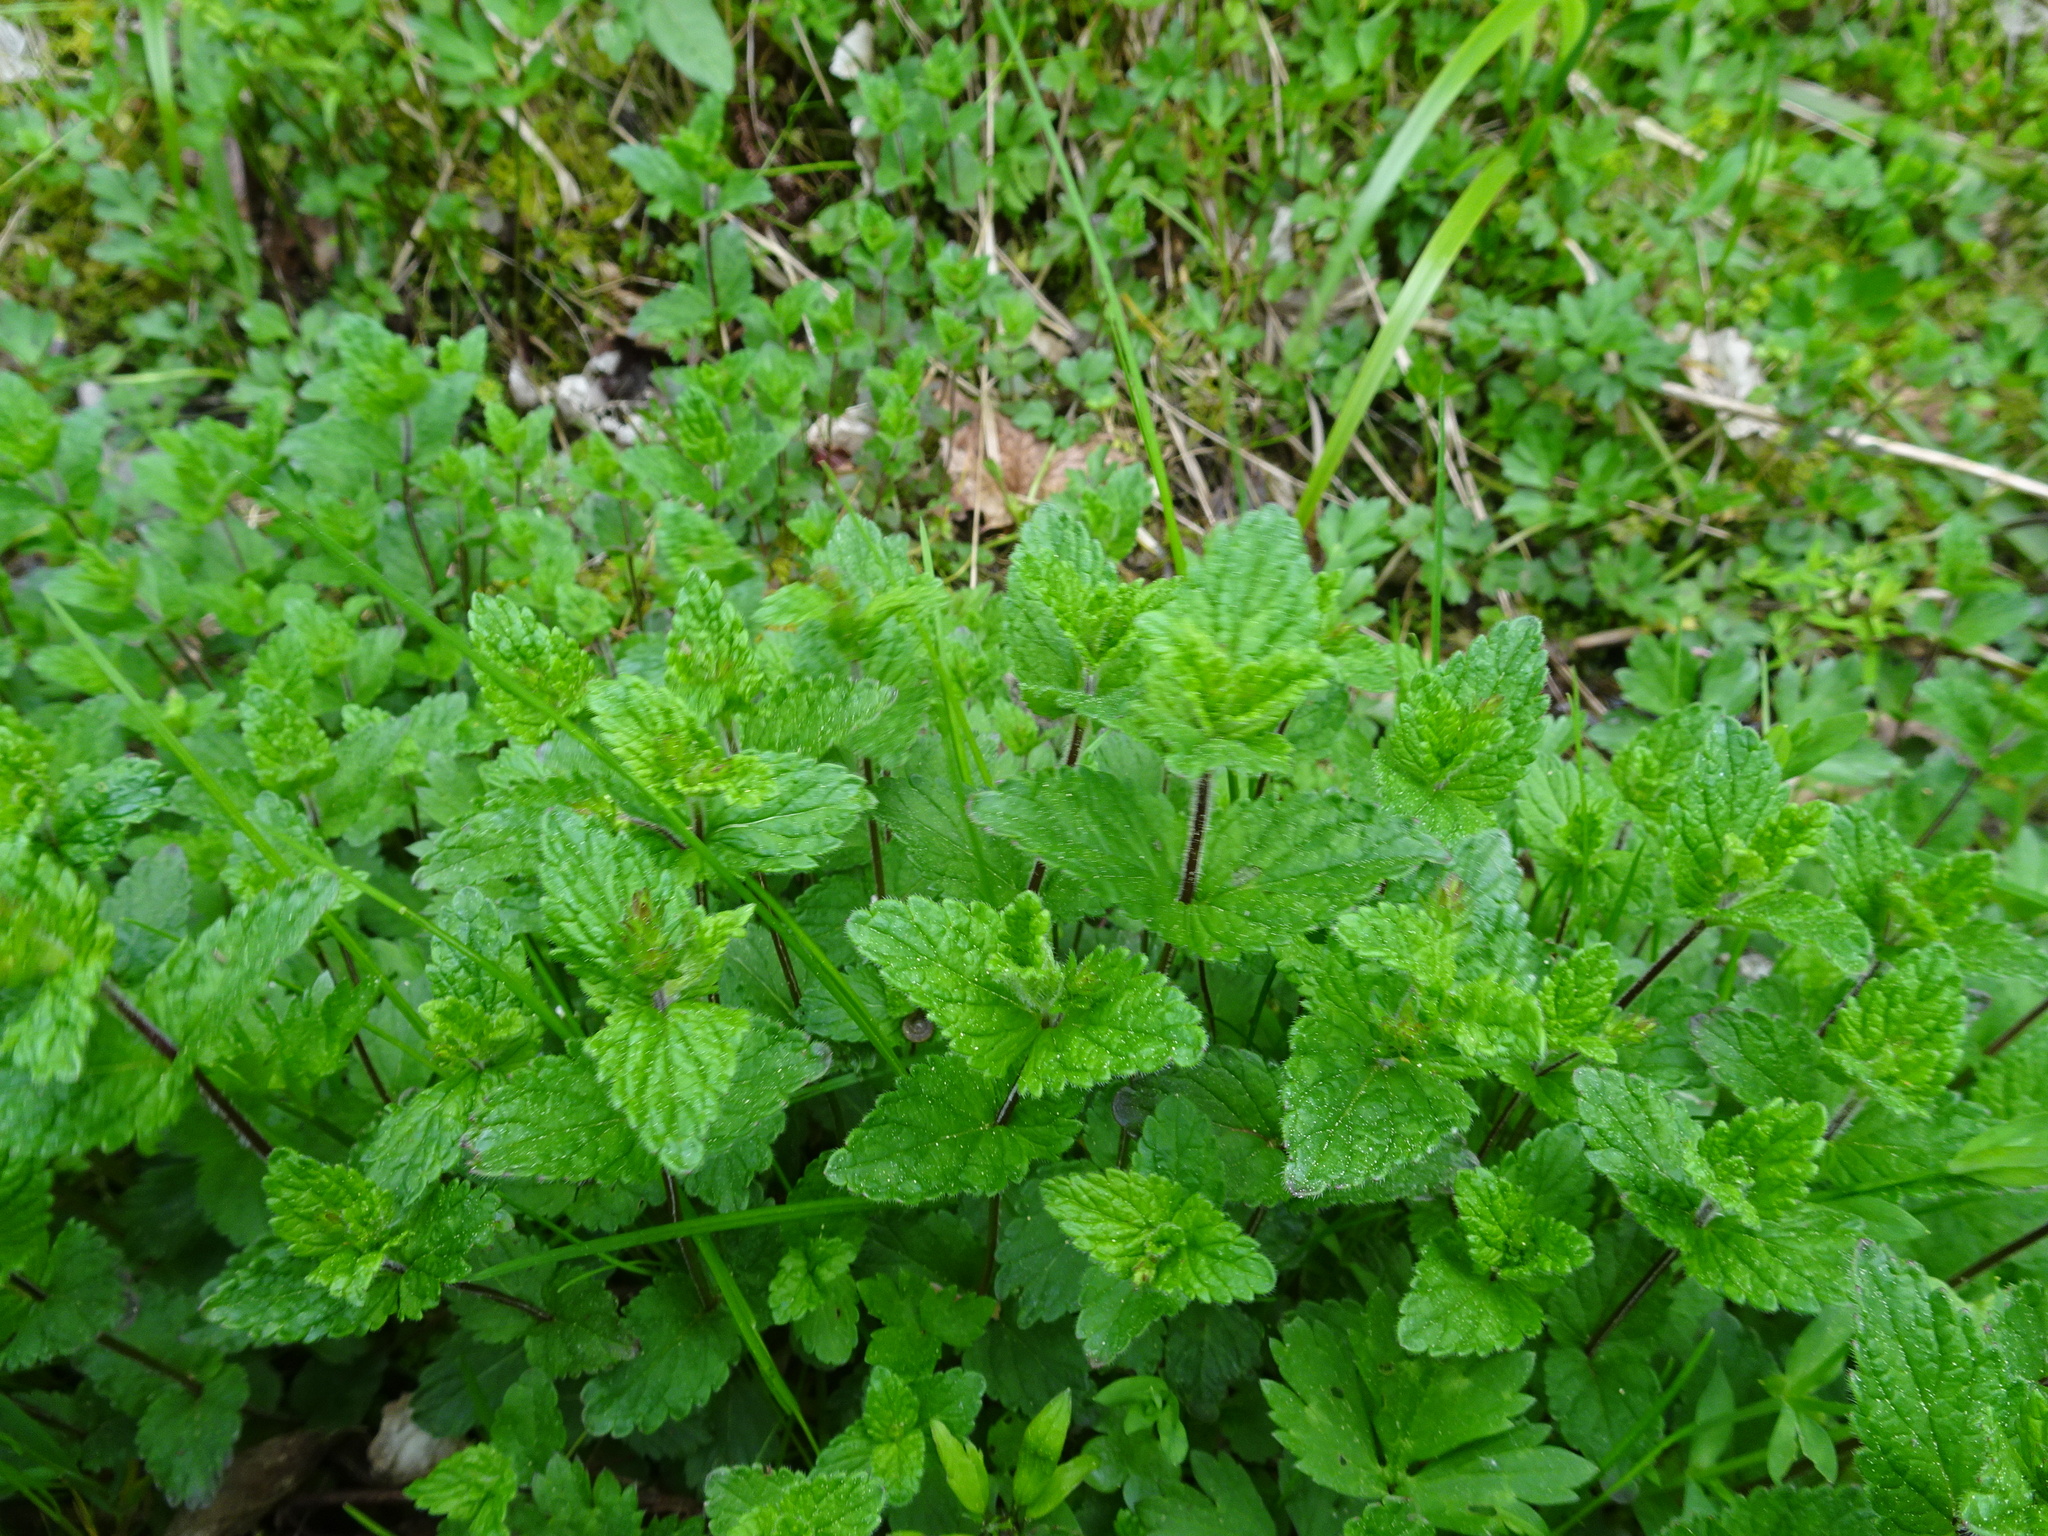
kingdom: Plantae
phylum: Tracheophyta
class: Magnoliopsida
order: Lamiales
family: Plantaginaceae
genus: Veronica
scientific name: Veronica chamaedrys
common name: Germander speedwell
